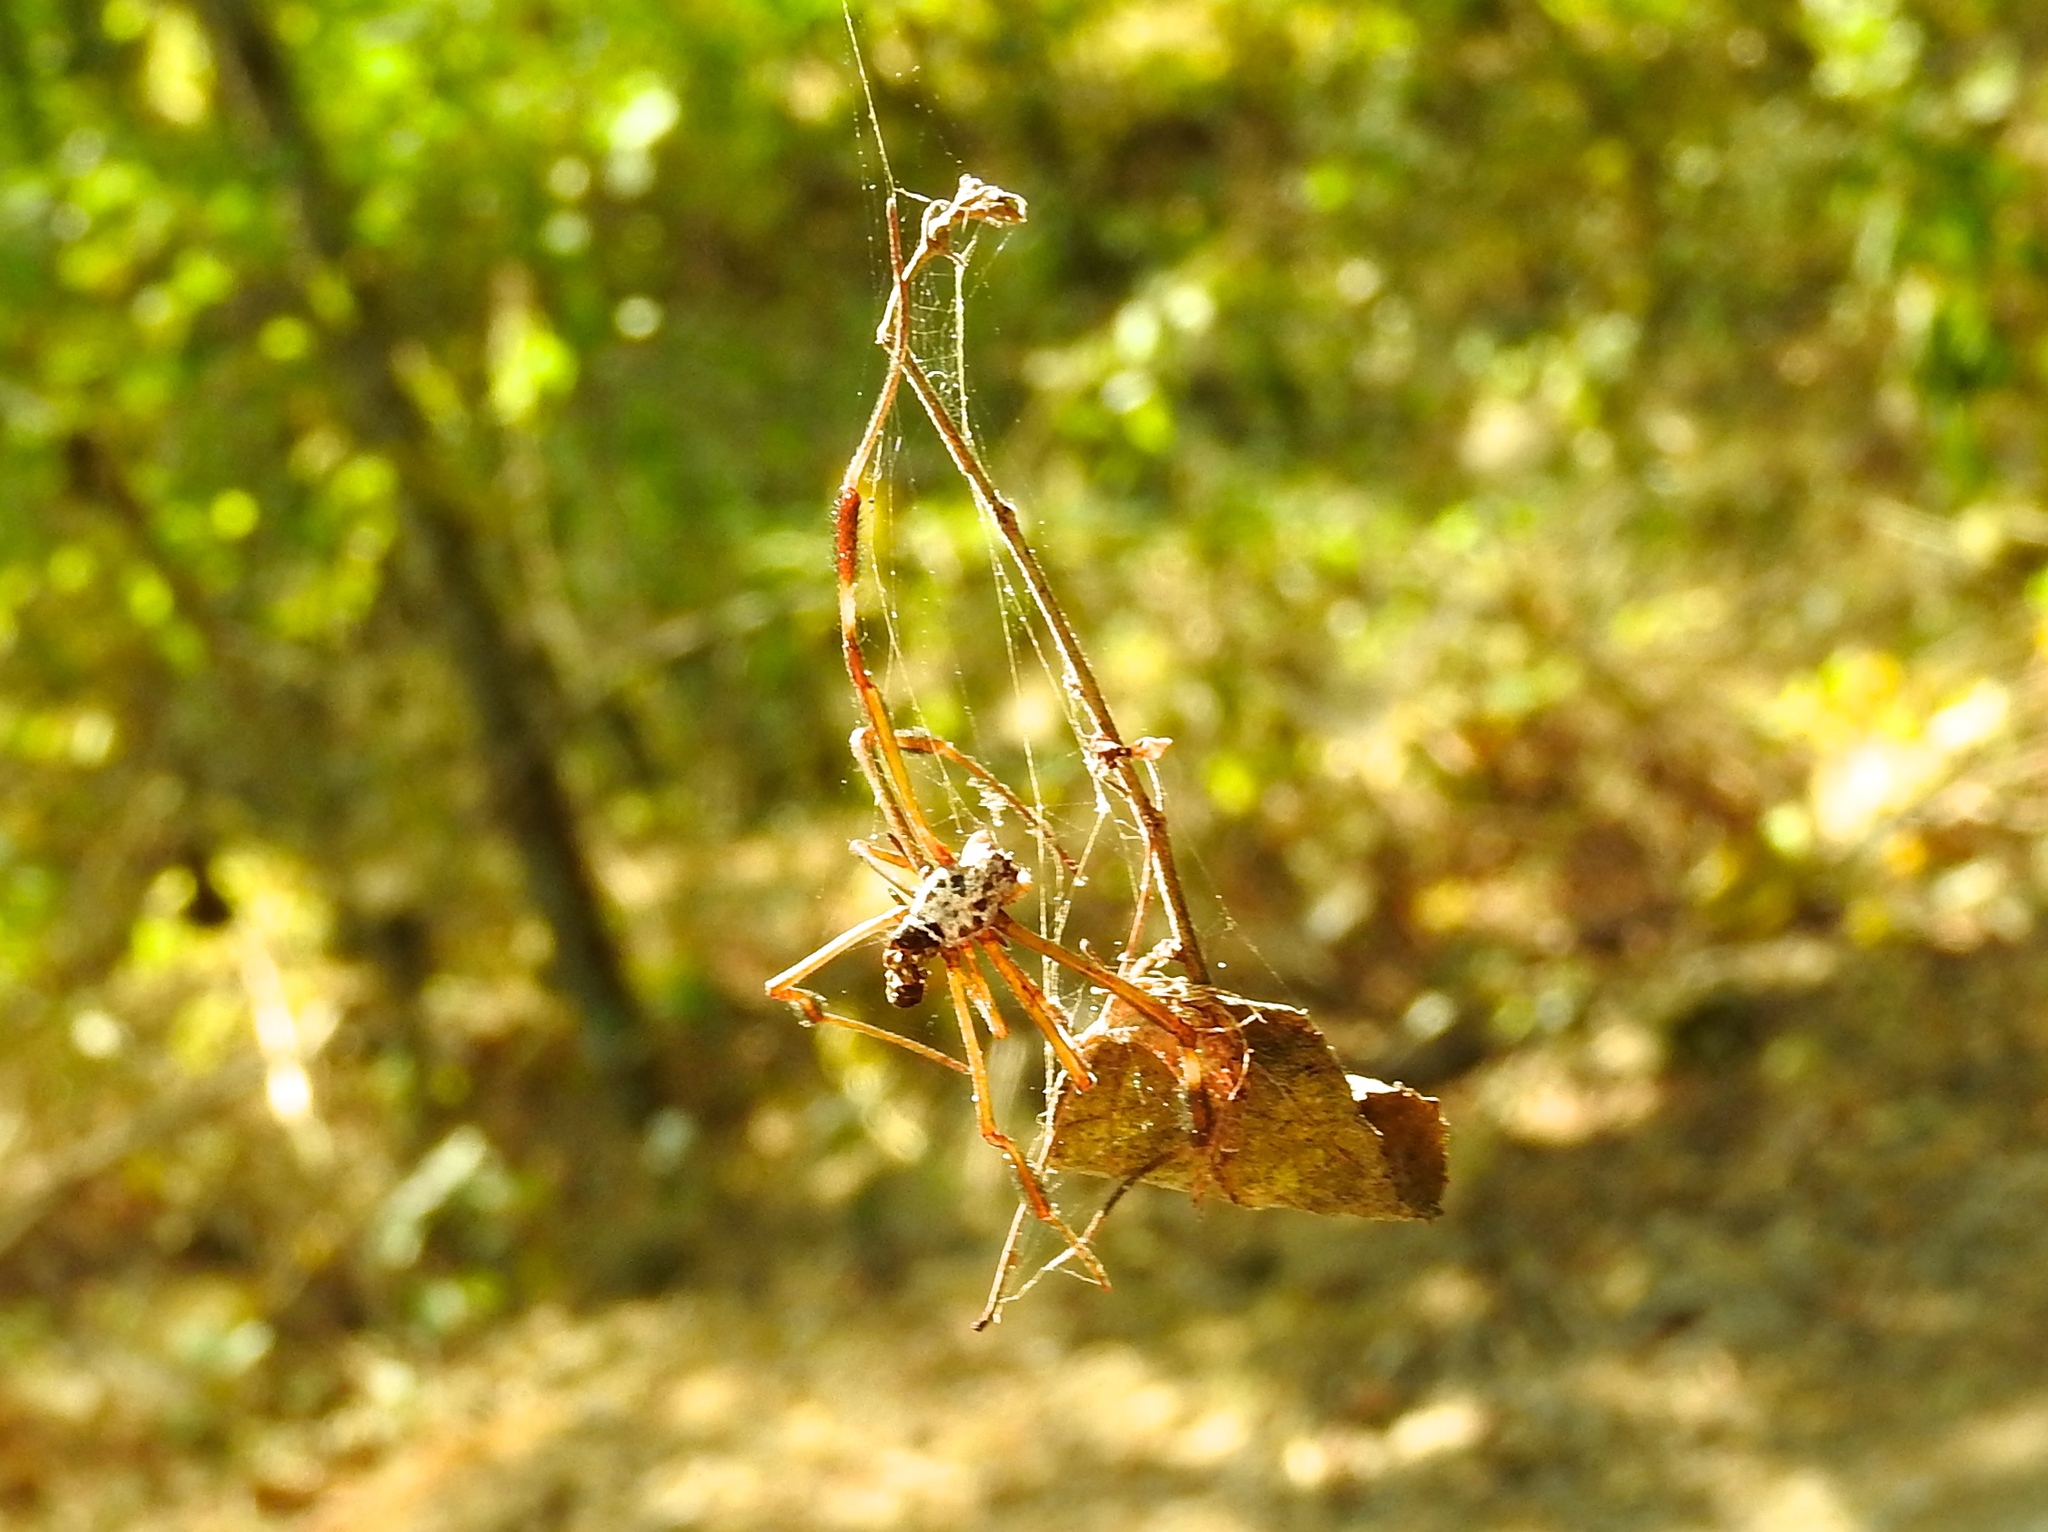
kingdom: Animalia
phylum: Arthropoda
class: Arachnida
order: Araneae
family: Araneidae
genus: Trichonephila
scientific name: Trichonephila clavipes
